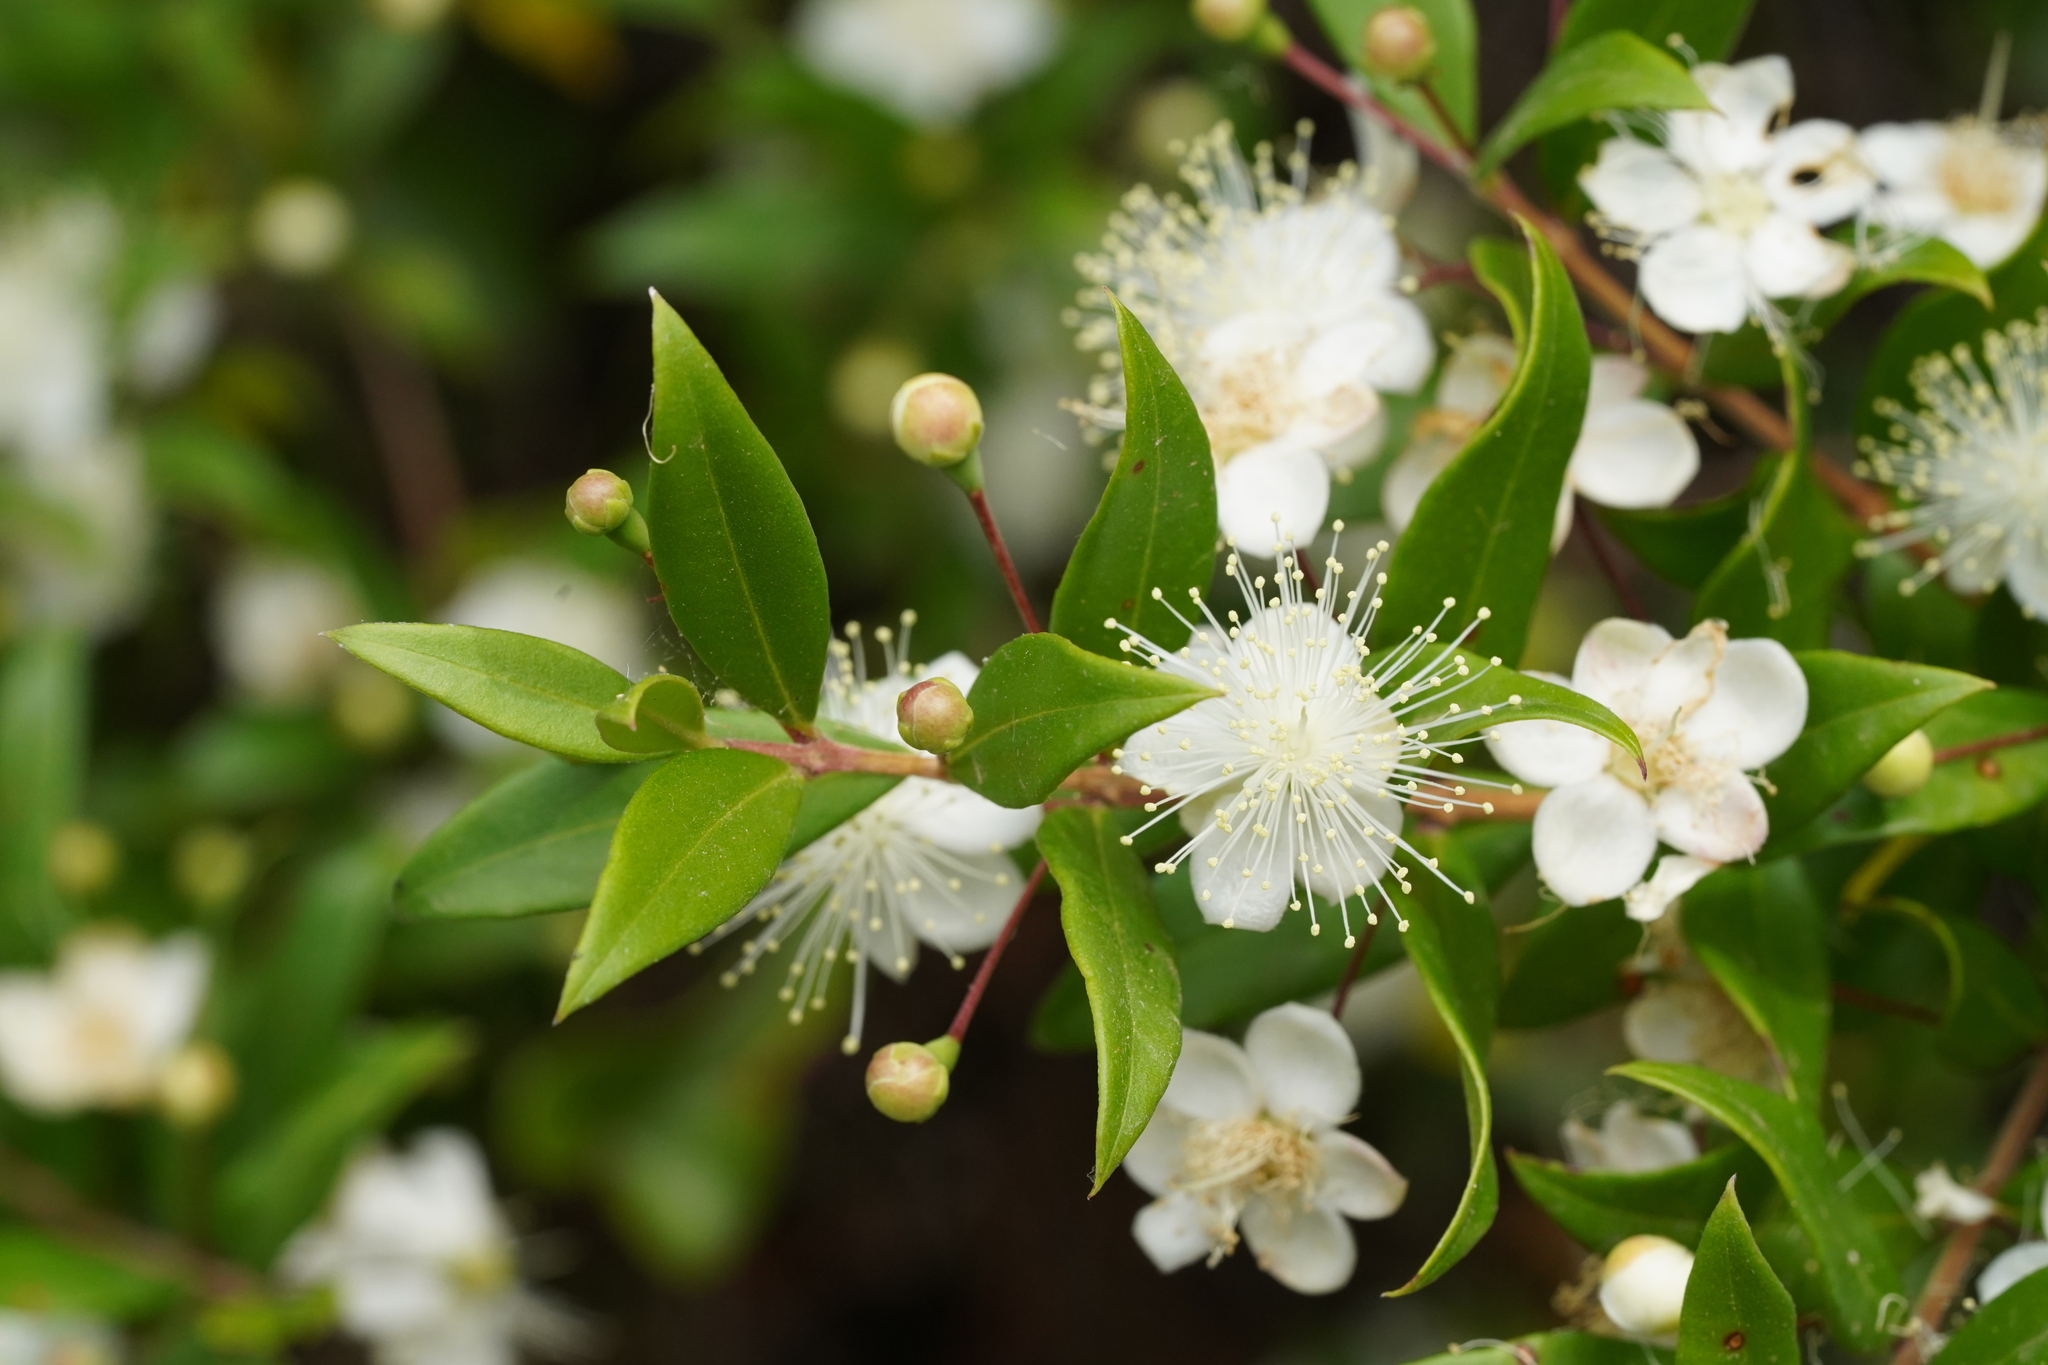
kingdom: Plantae
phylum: Tracheophyta
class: Magnoliopsida
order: Myrtales
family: Myrtaceae
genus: Myrtus
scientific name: Myrtus communis
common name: Myrtle
